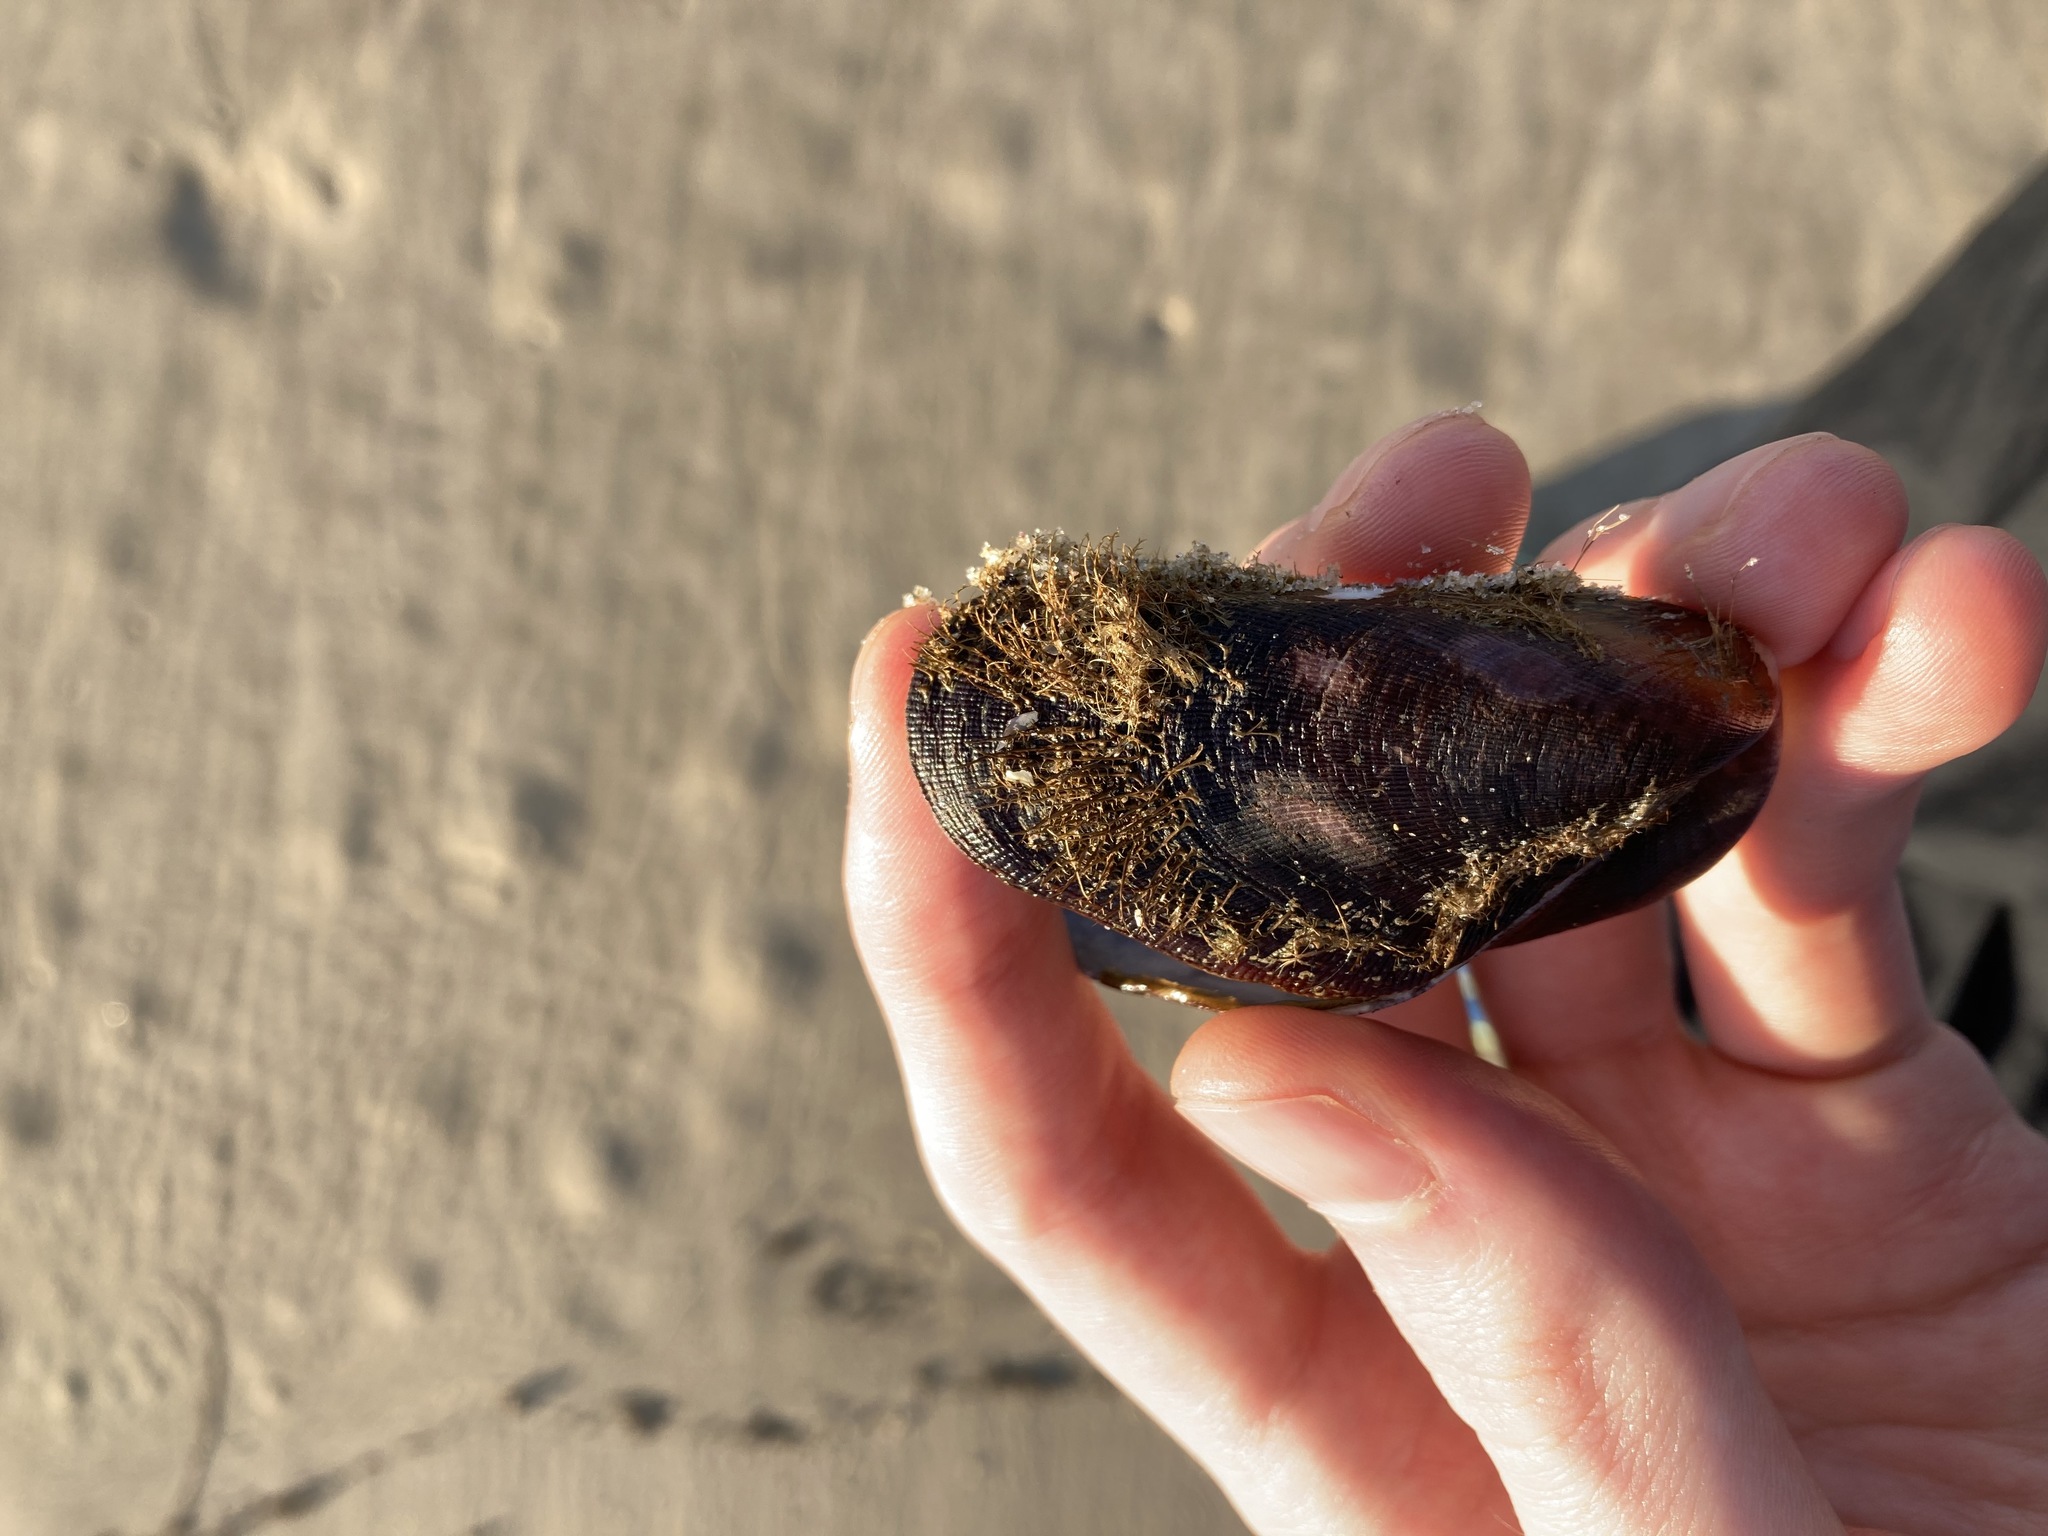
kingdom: Animalia
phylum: Mollusca
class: Bivalvia
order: Mytilida
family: Mytilidae
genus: Trichomya
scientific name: Trichomya hirsuta
